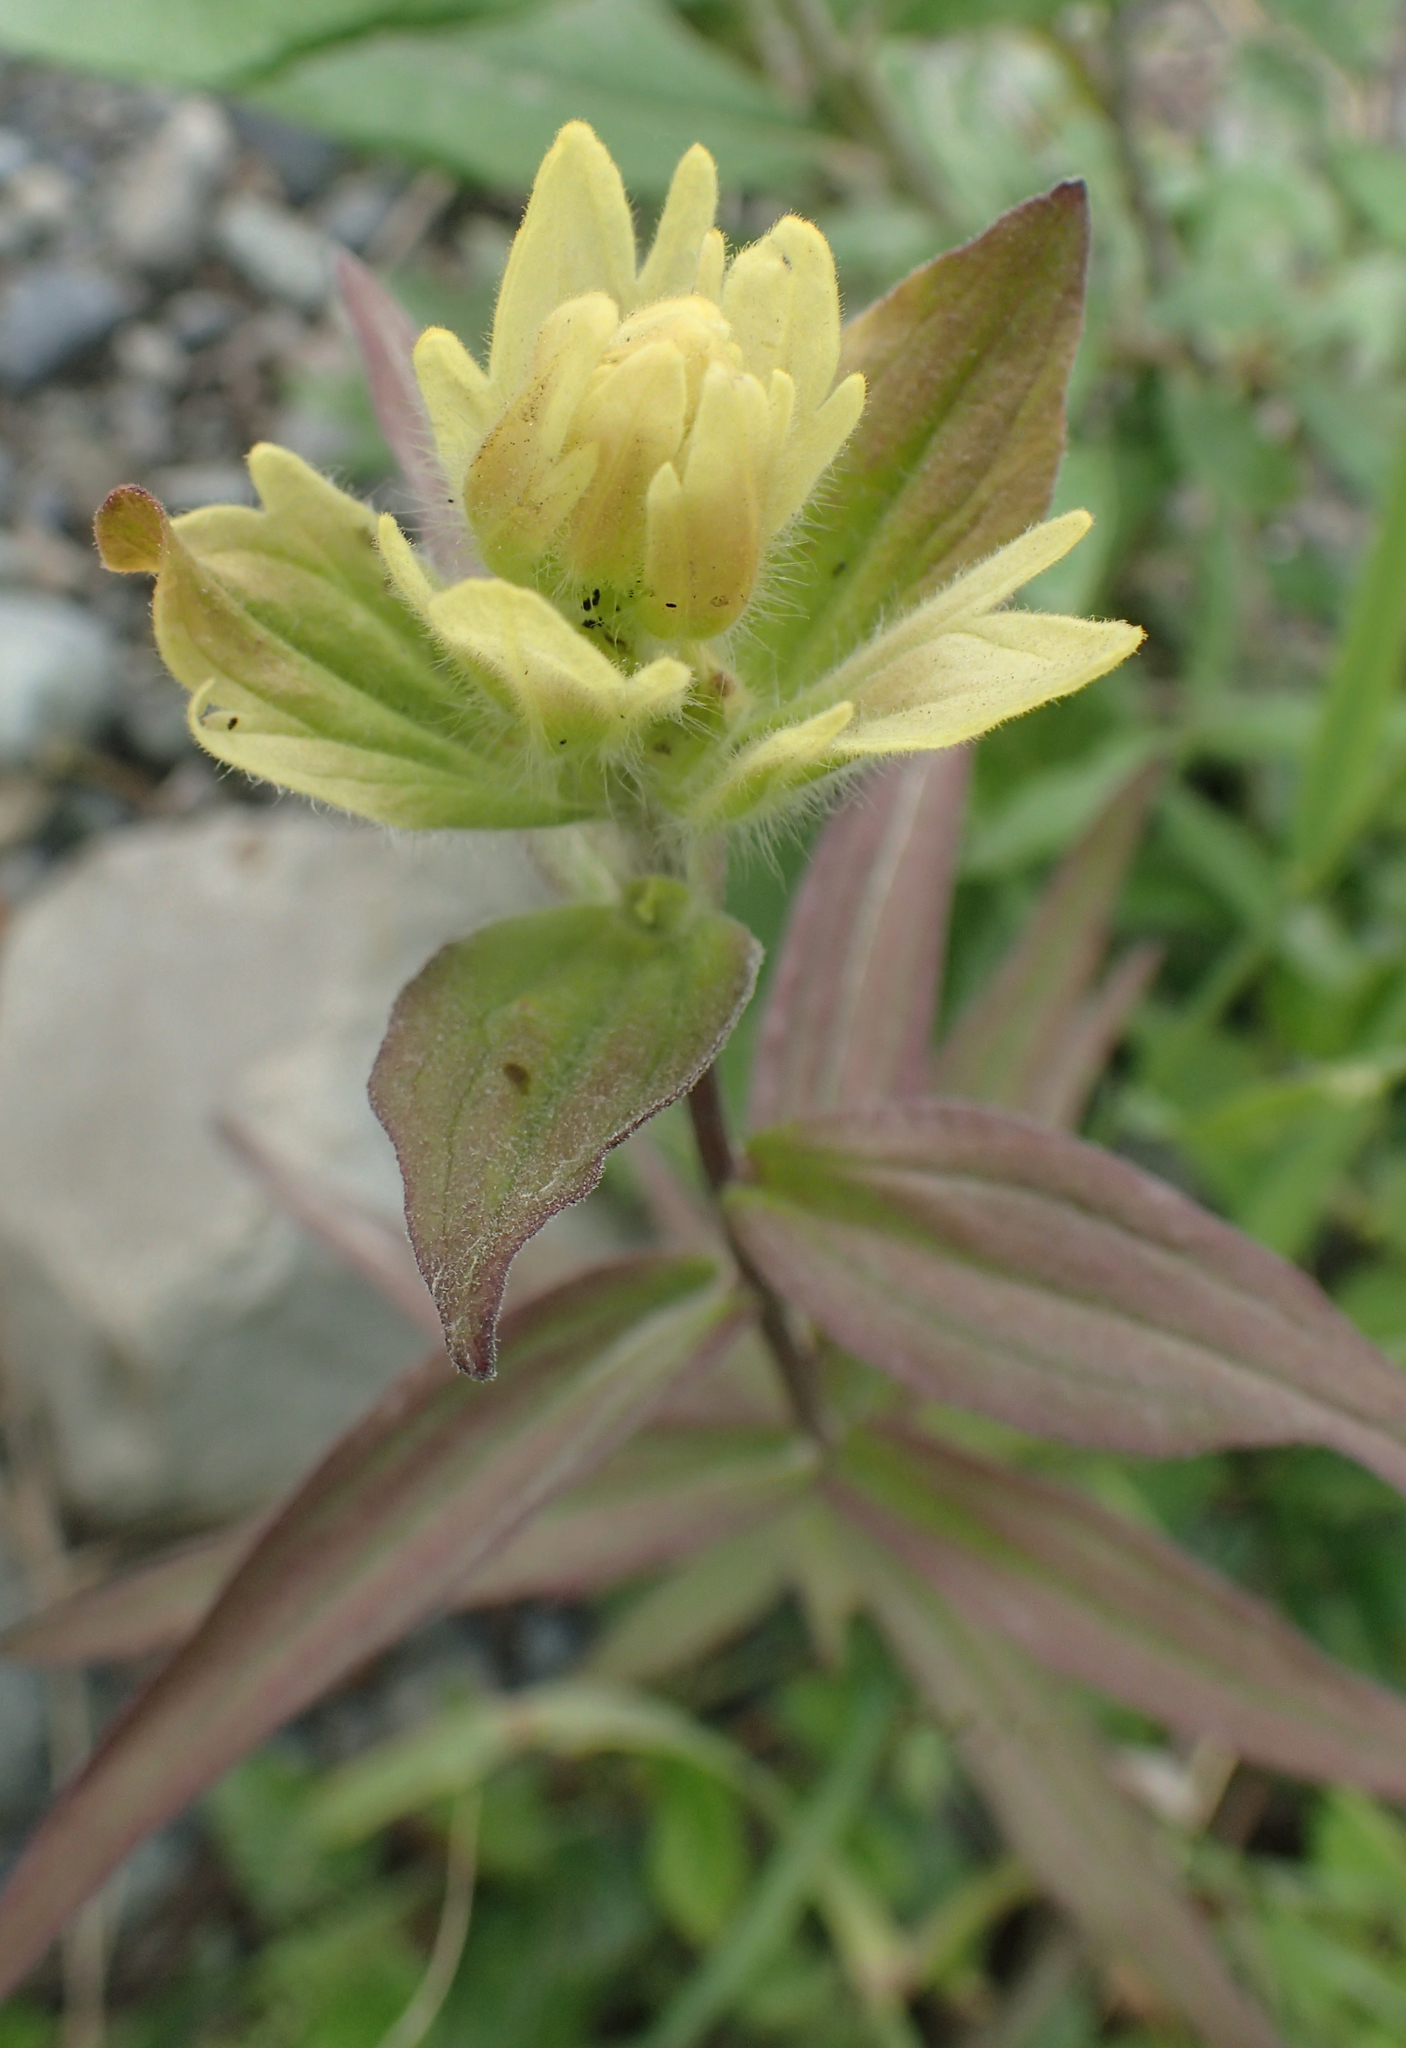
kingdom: Plantae
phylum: Tracheophyta
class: Magnoliopsida
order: Lamiales
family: Orobanchaceae
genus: Castilleja
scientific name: Castilleja unalaschcensis
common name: Unalaska paintbrush
